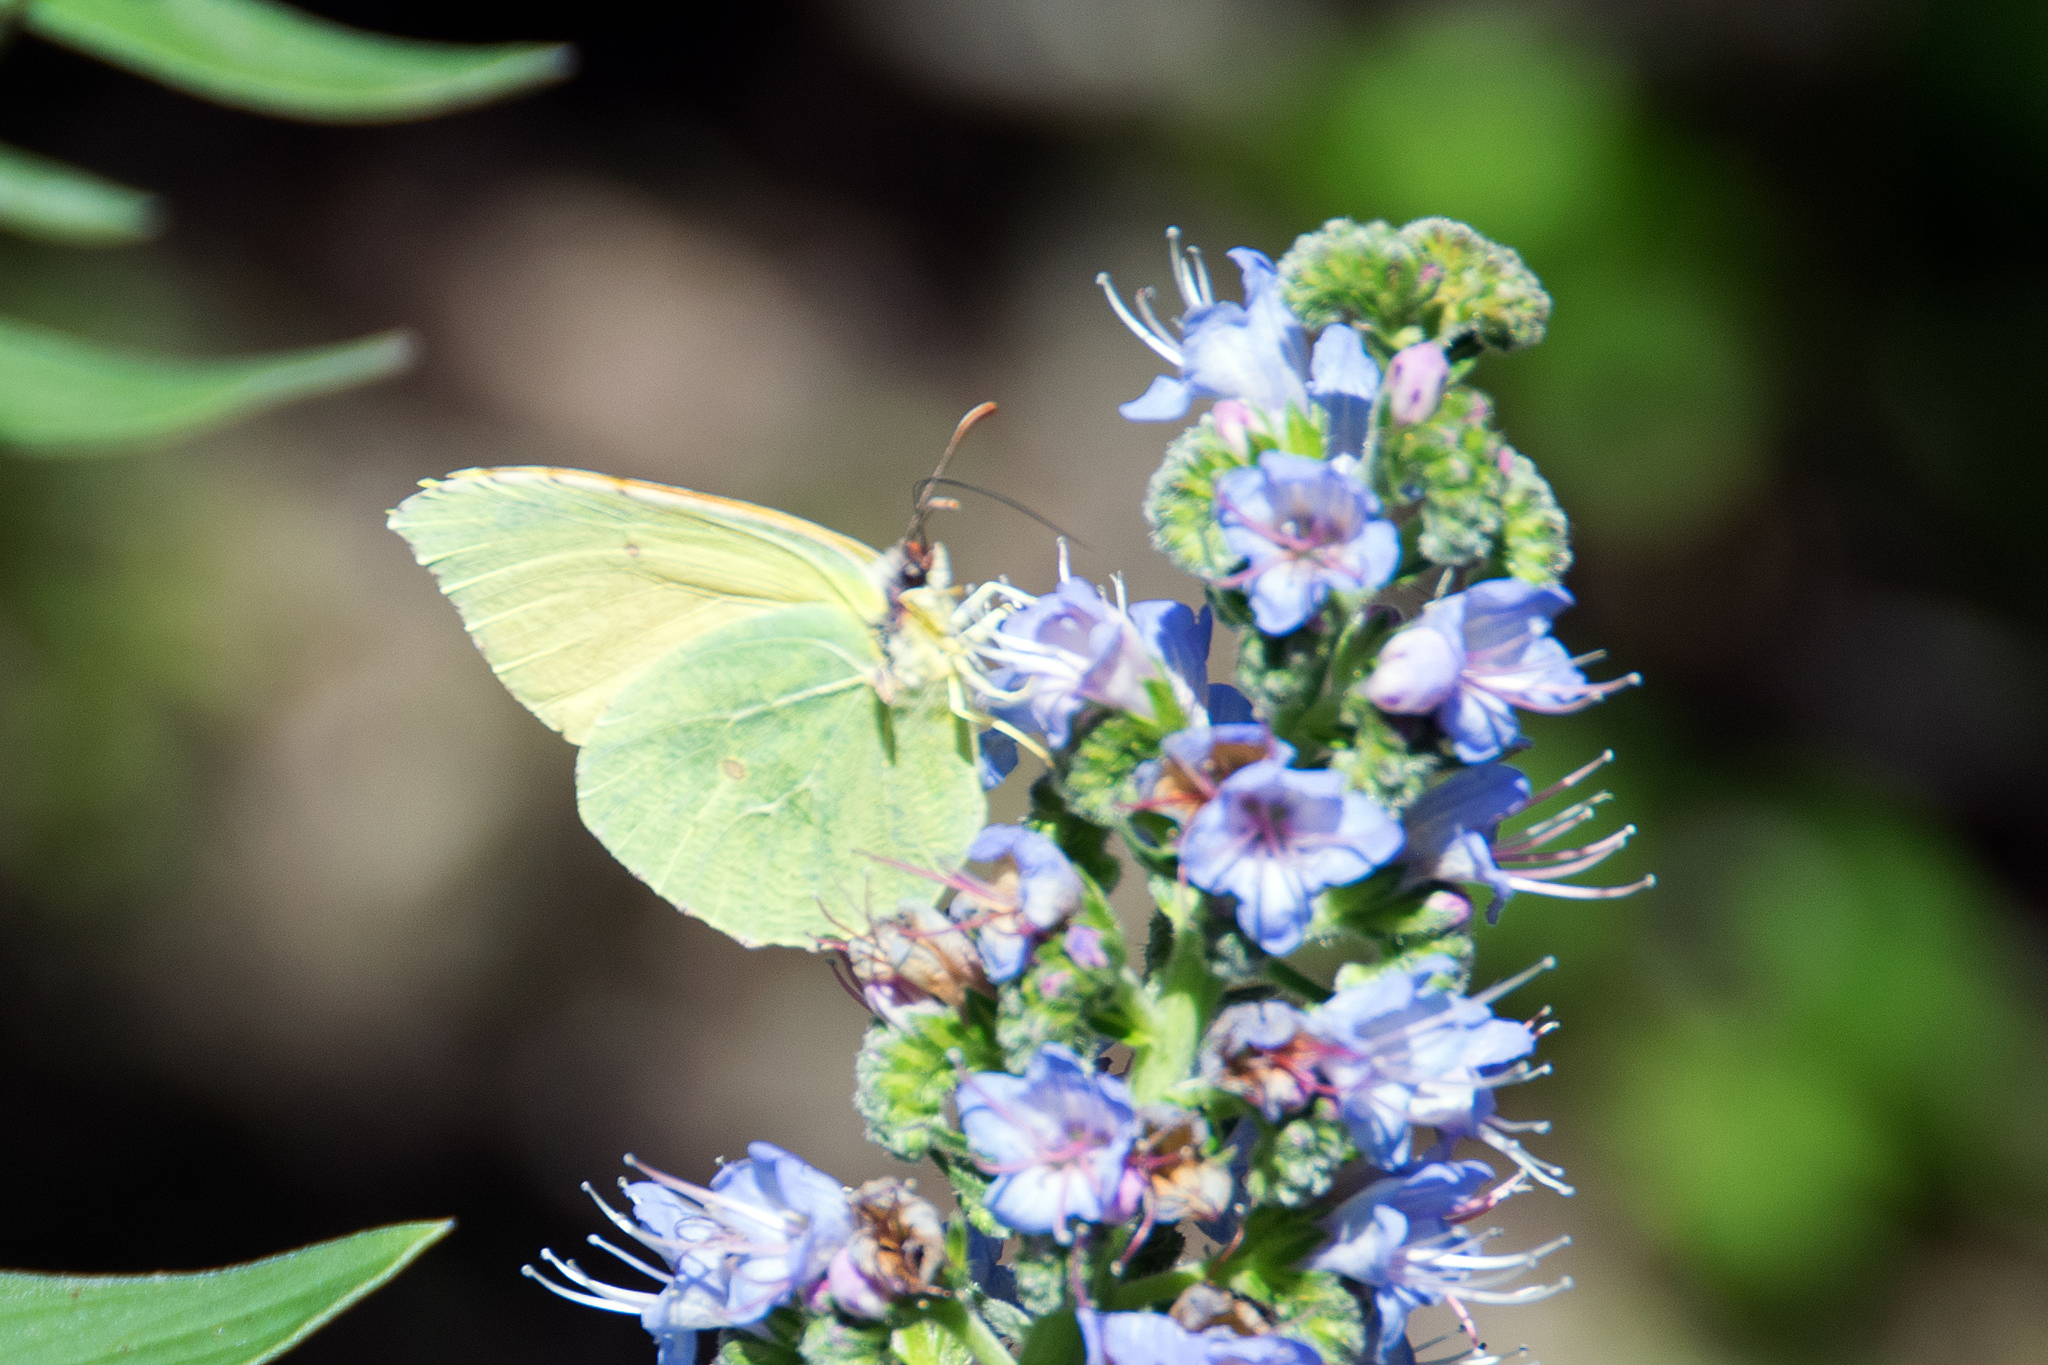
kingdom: Animalia
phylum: Arthropoda
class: Insecta
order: Lepidoptera
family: Pieridae
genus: Gonepteryx
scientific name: Gonepteryx cleobule
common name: Canary brimstone
